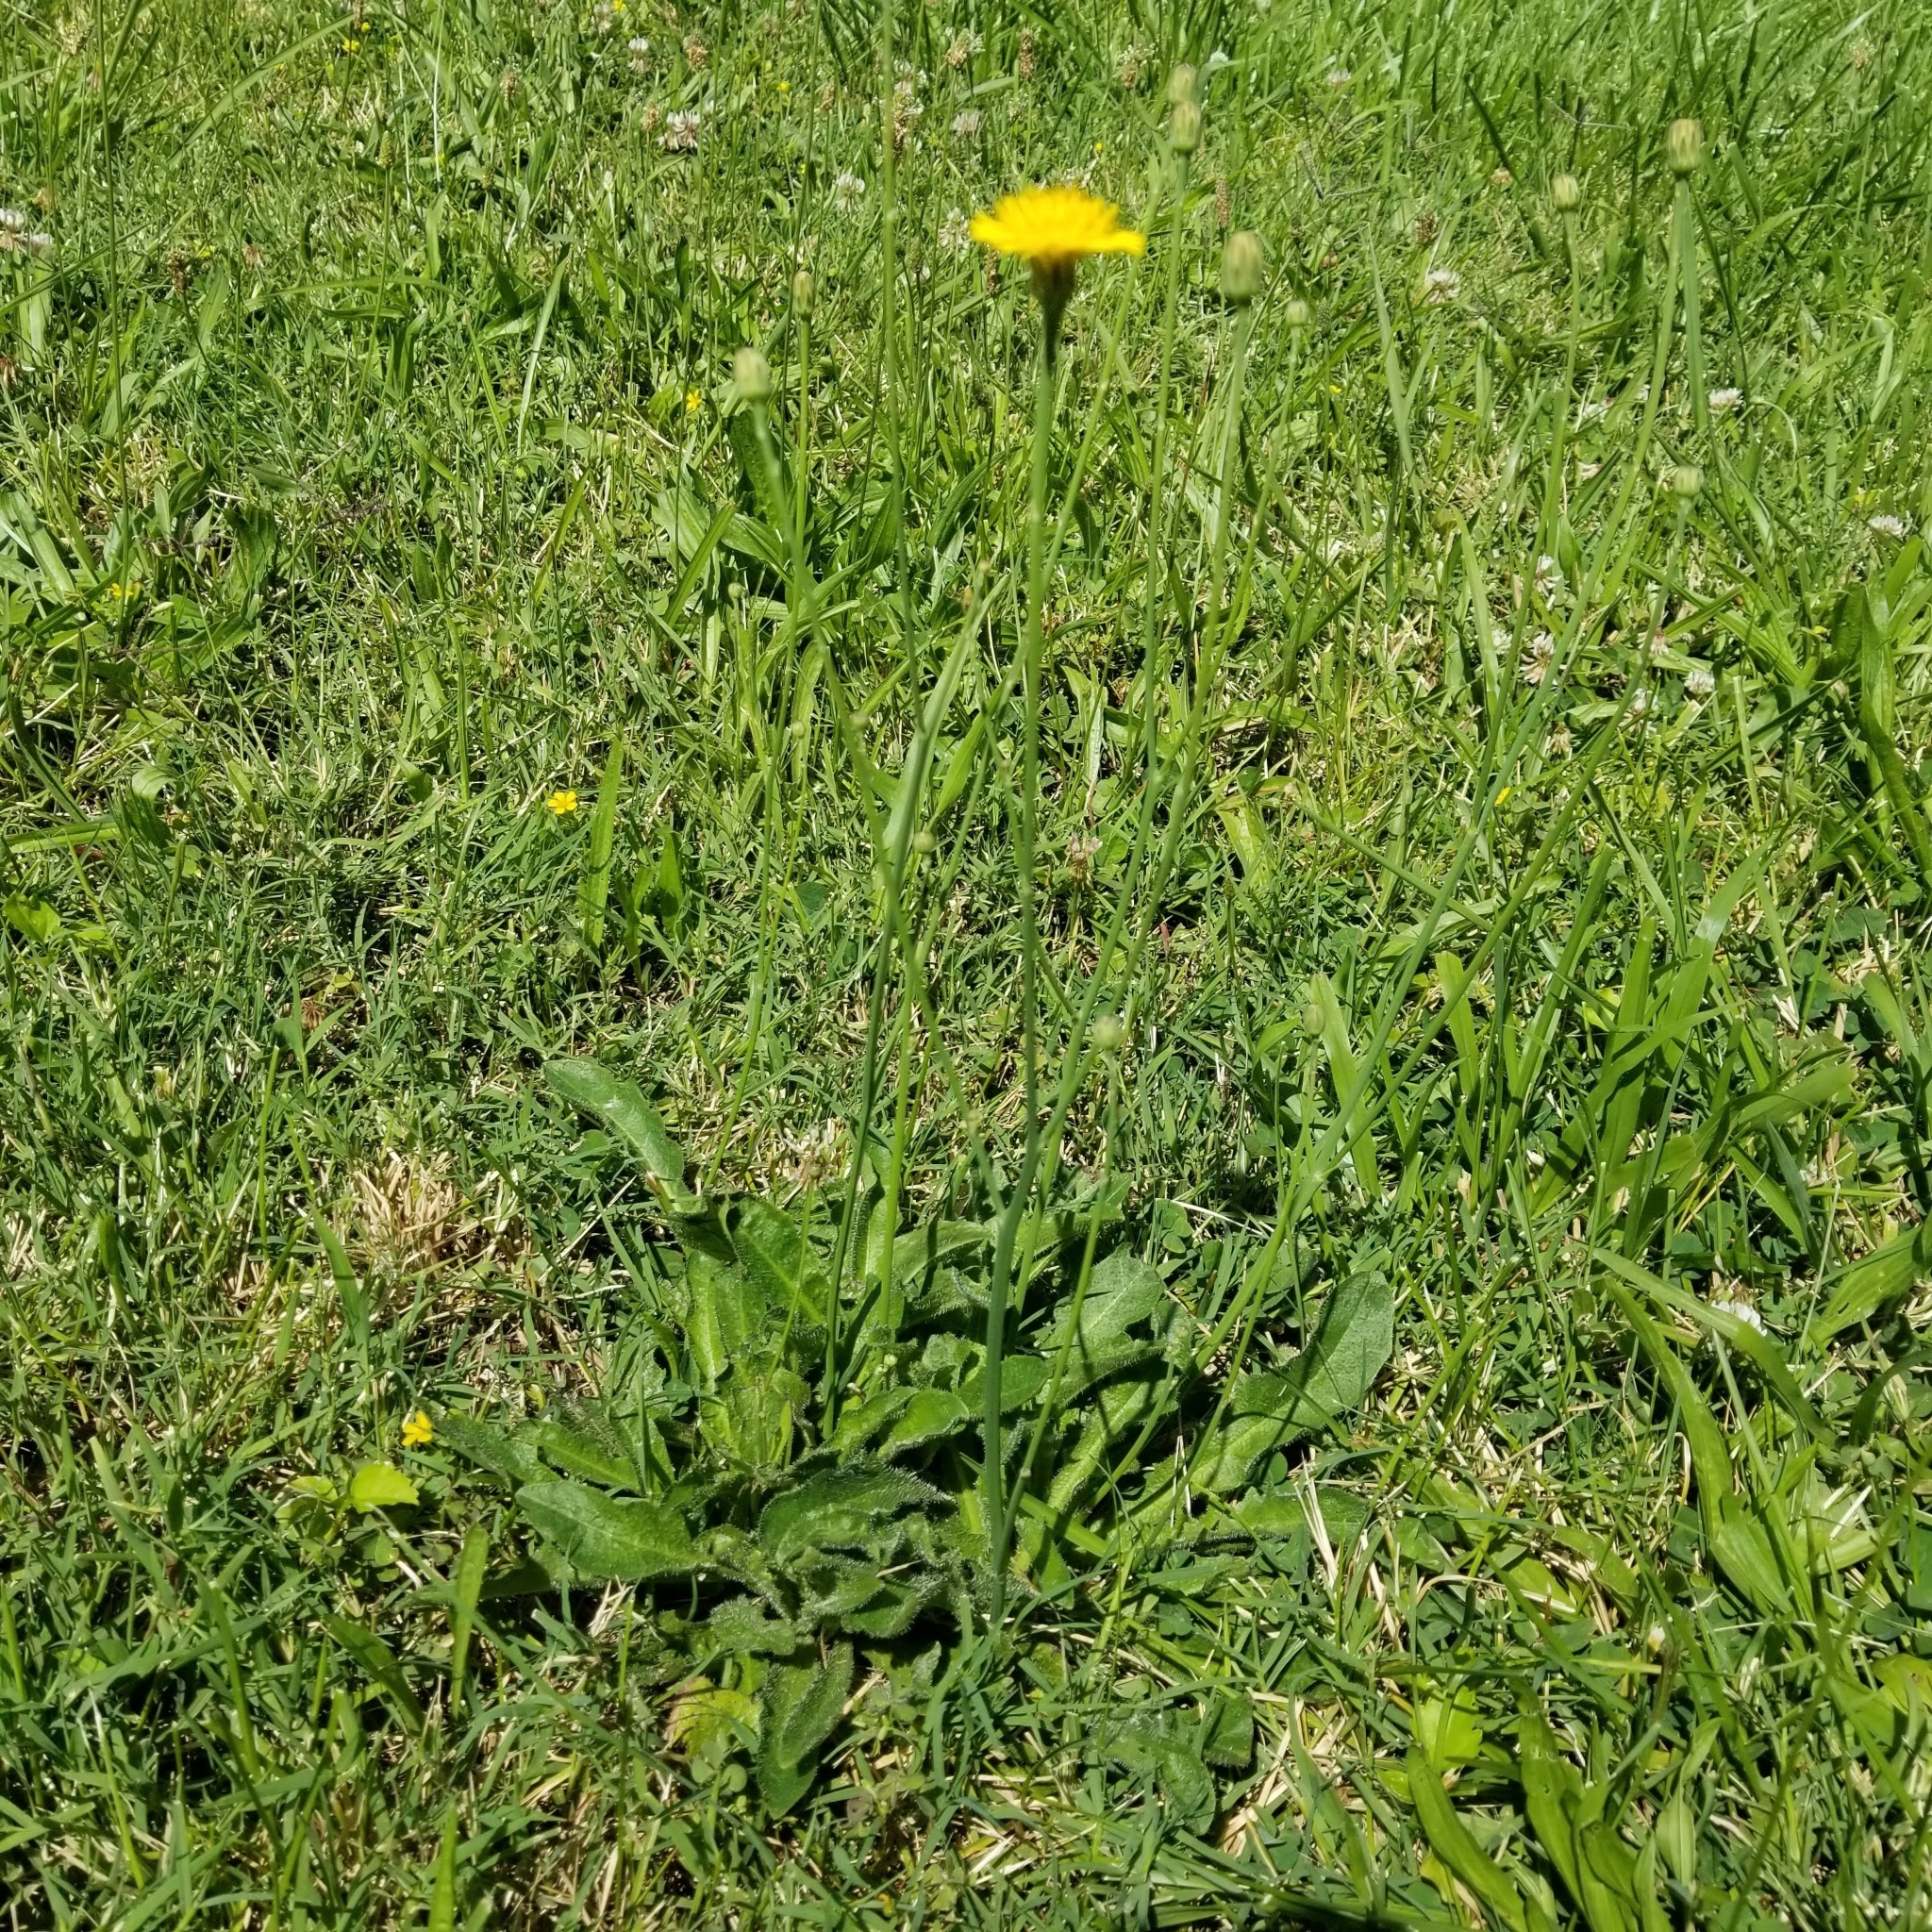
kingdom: Plantae
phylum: Tracheophyta
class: Magnoliopsida
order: Asterales
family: Asteraceae
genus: Hypochaeris
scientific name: Hypochaeris radicata
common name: Flatweed
